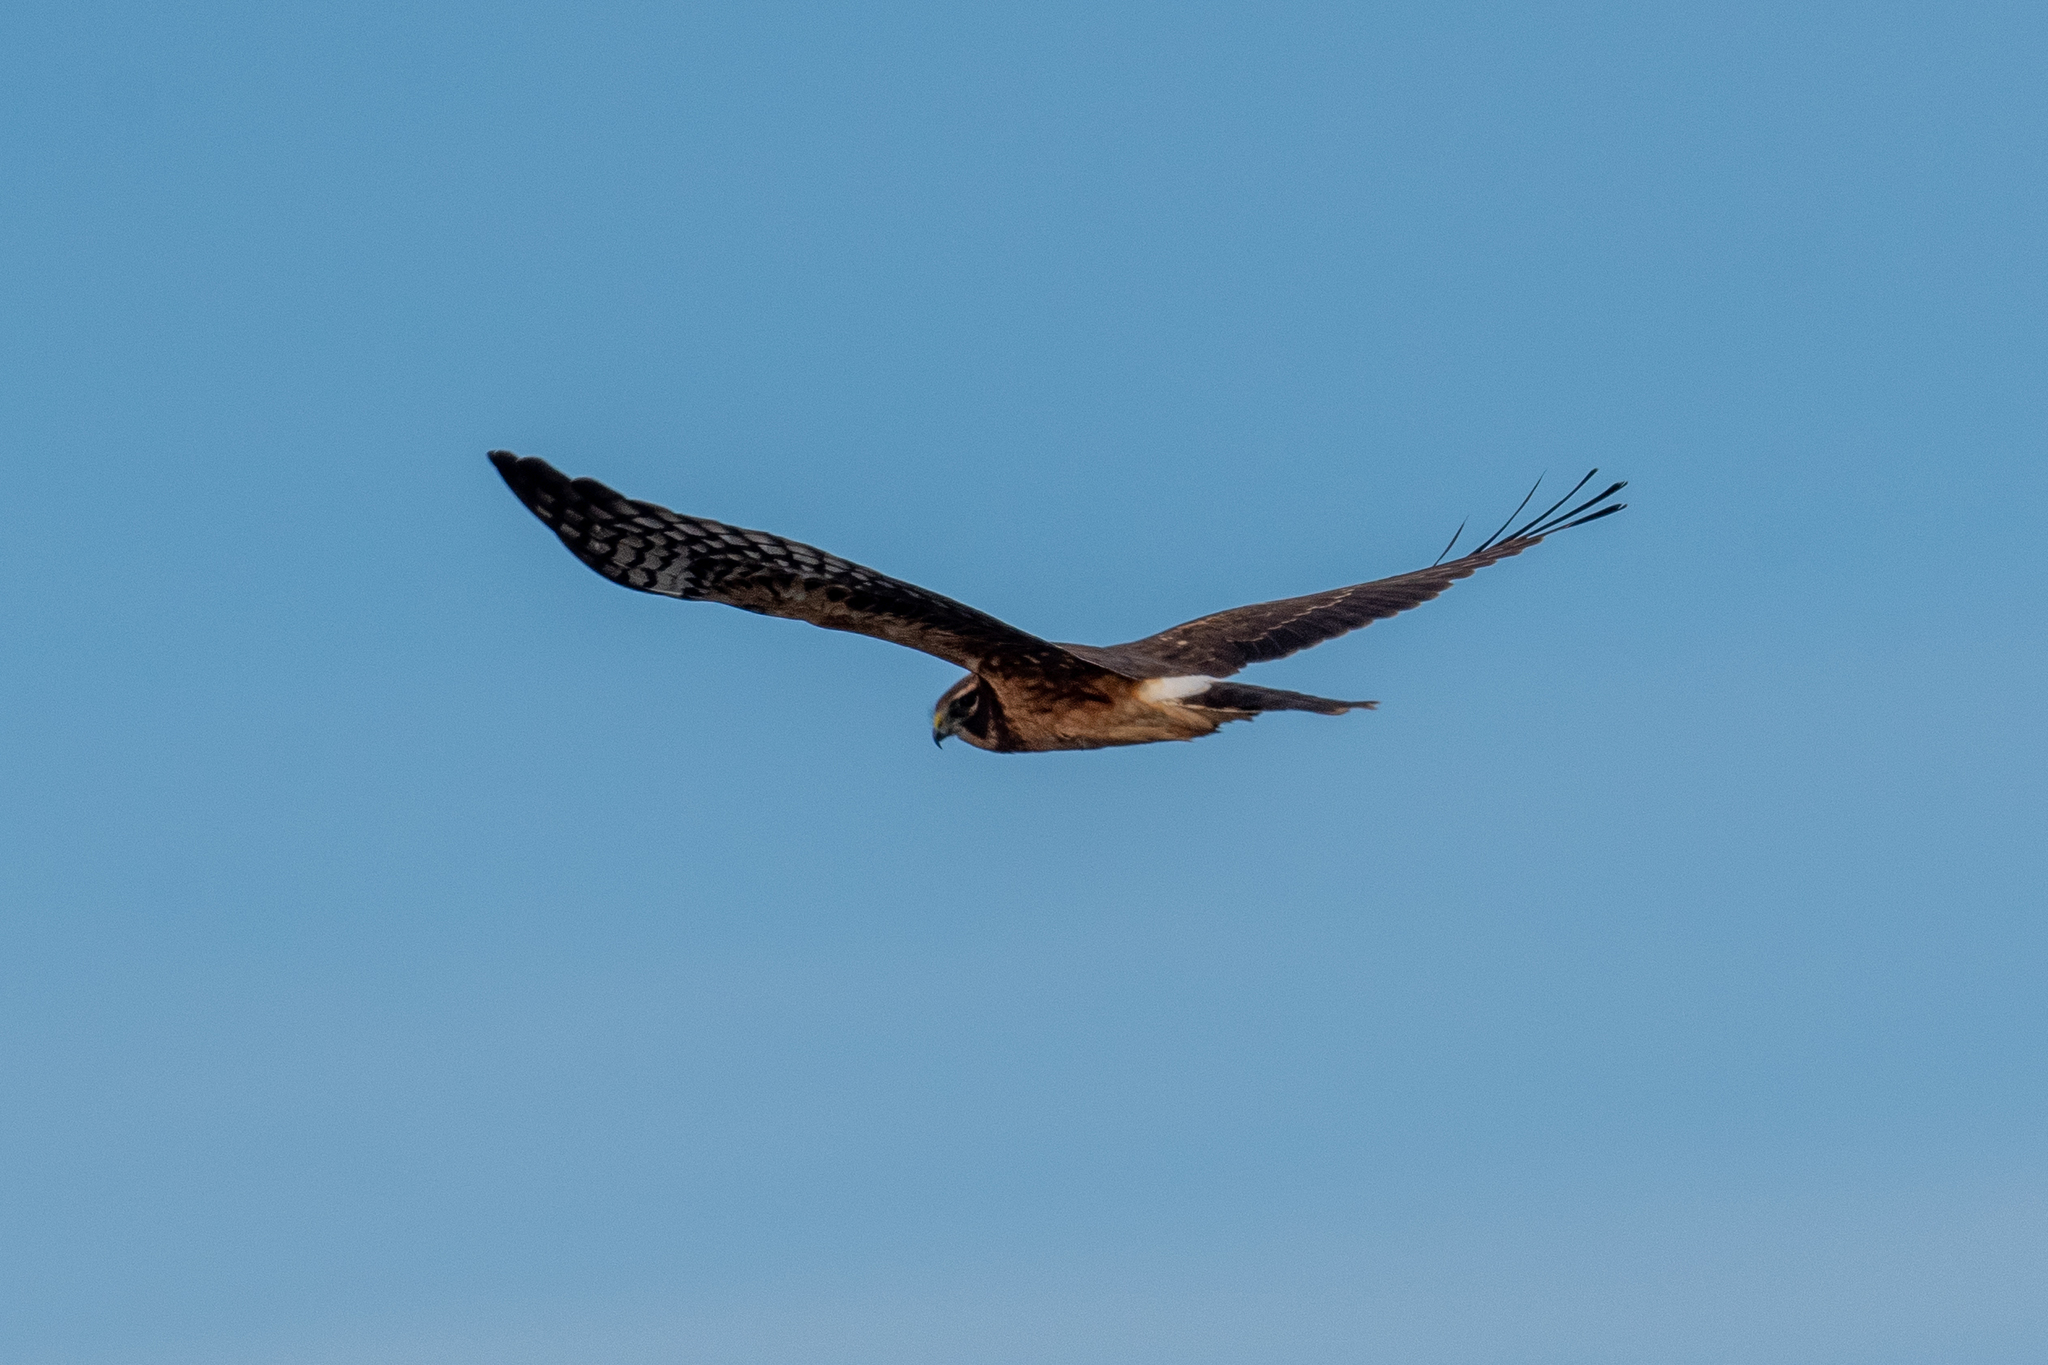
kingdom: Animalia
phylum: Chordata
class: Aves
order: Accipitriformes
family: Accipitridae
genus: Circus
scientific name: Circus cyaneus
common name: Hen harrier
